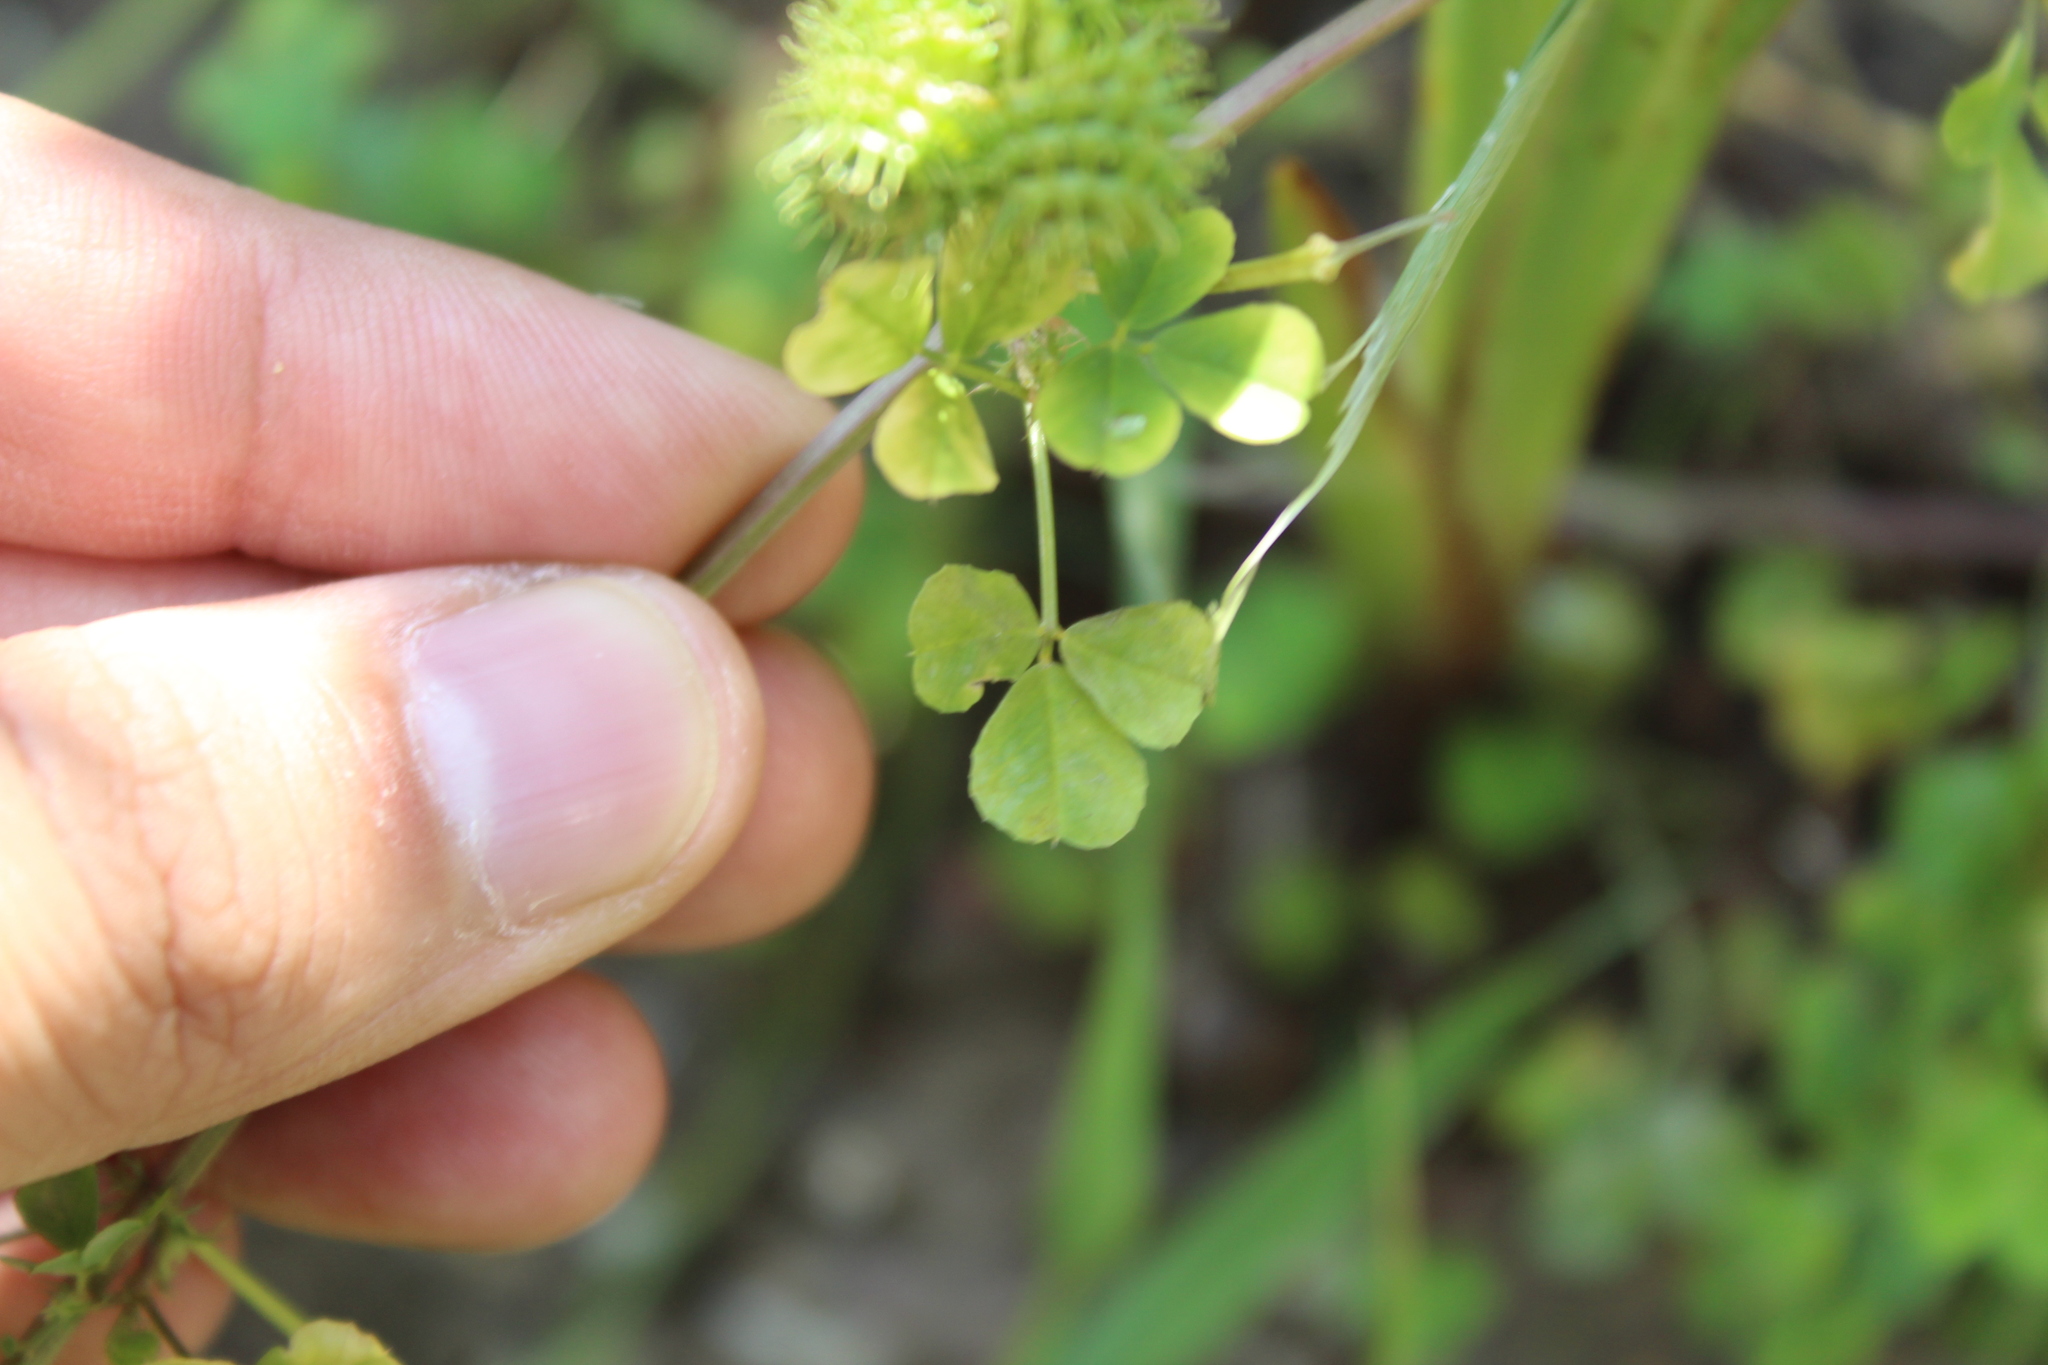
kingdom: Plantae
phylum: Tracheophyta
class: Magnoliopsida
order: Fabales
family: Fabaceae
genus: Medicago
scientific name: Medicago polymorpha
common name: Burclover
